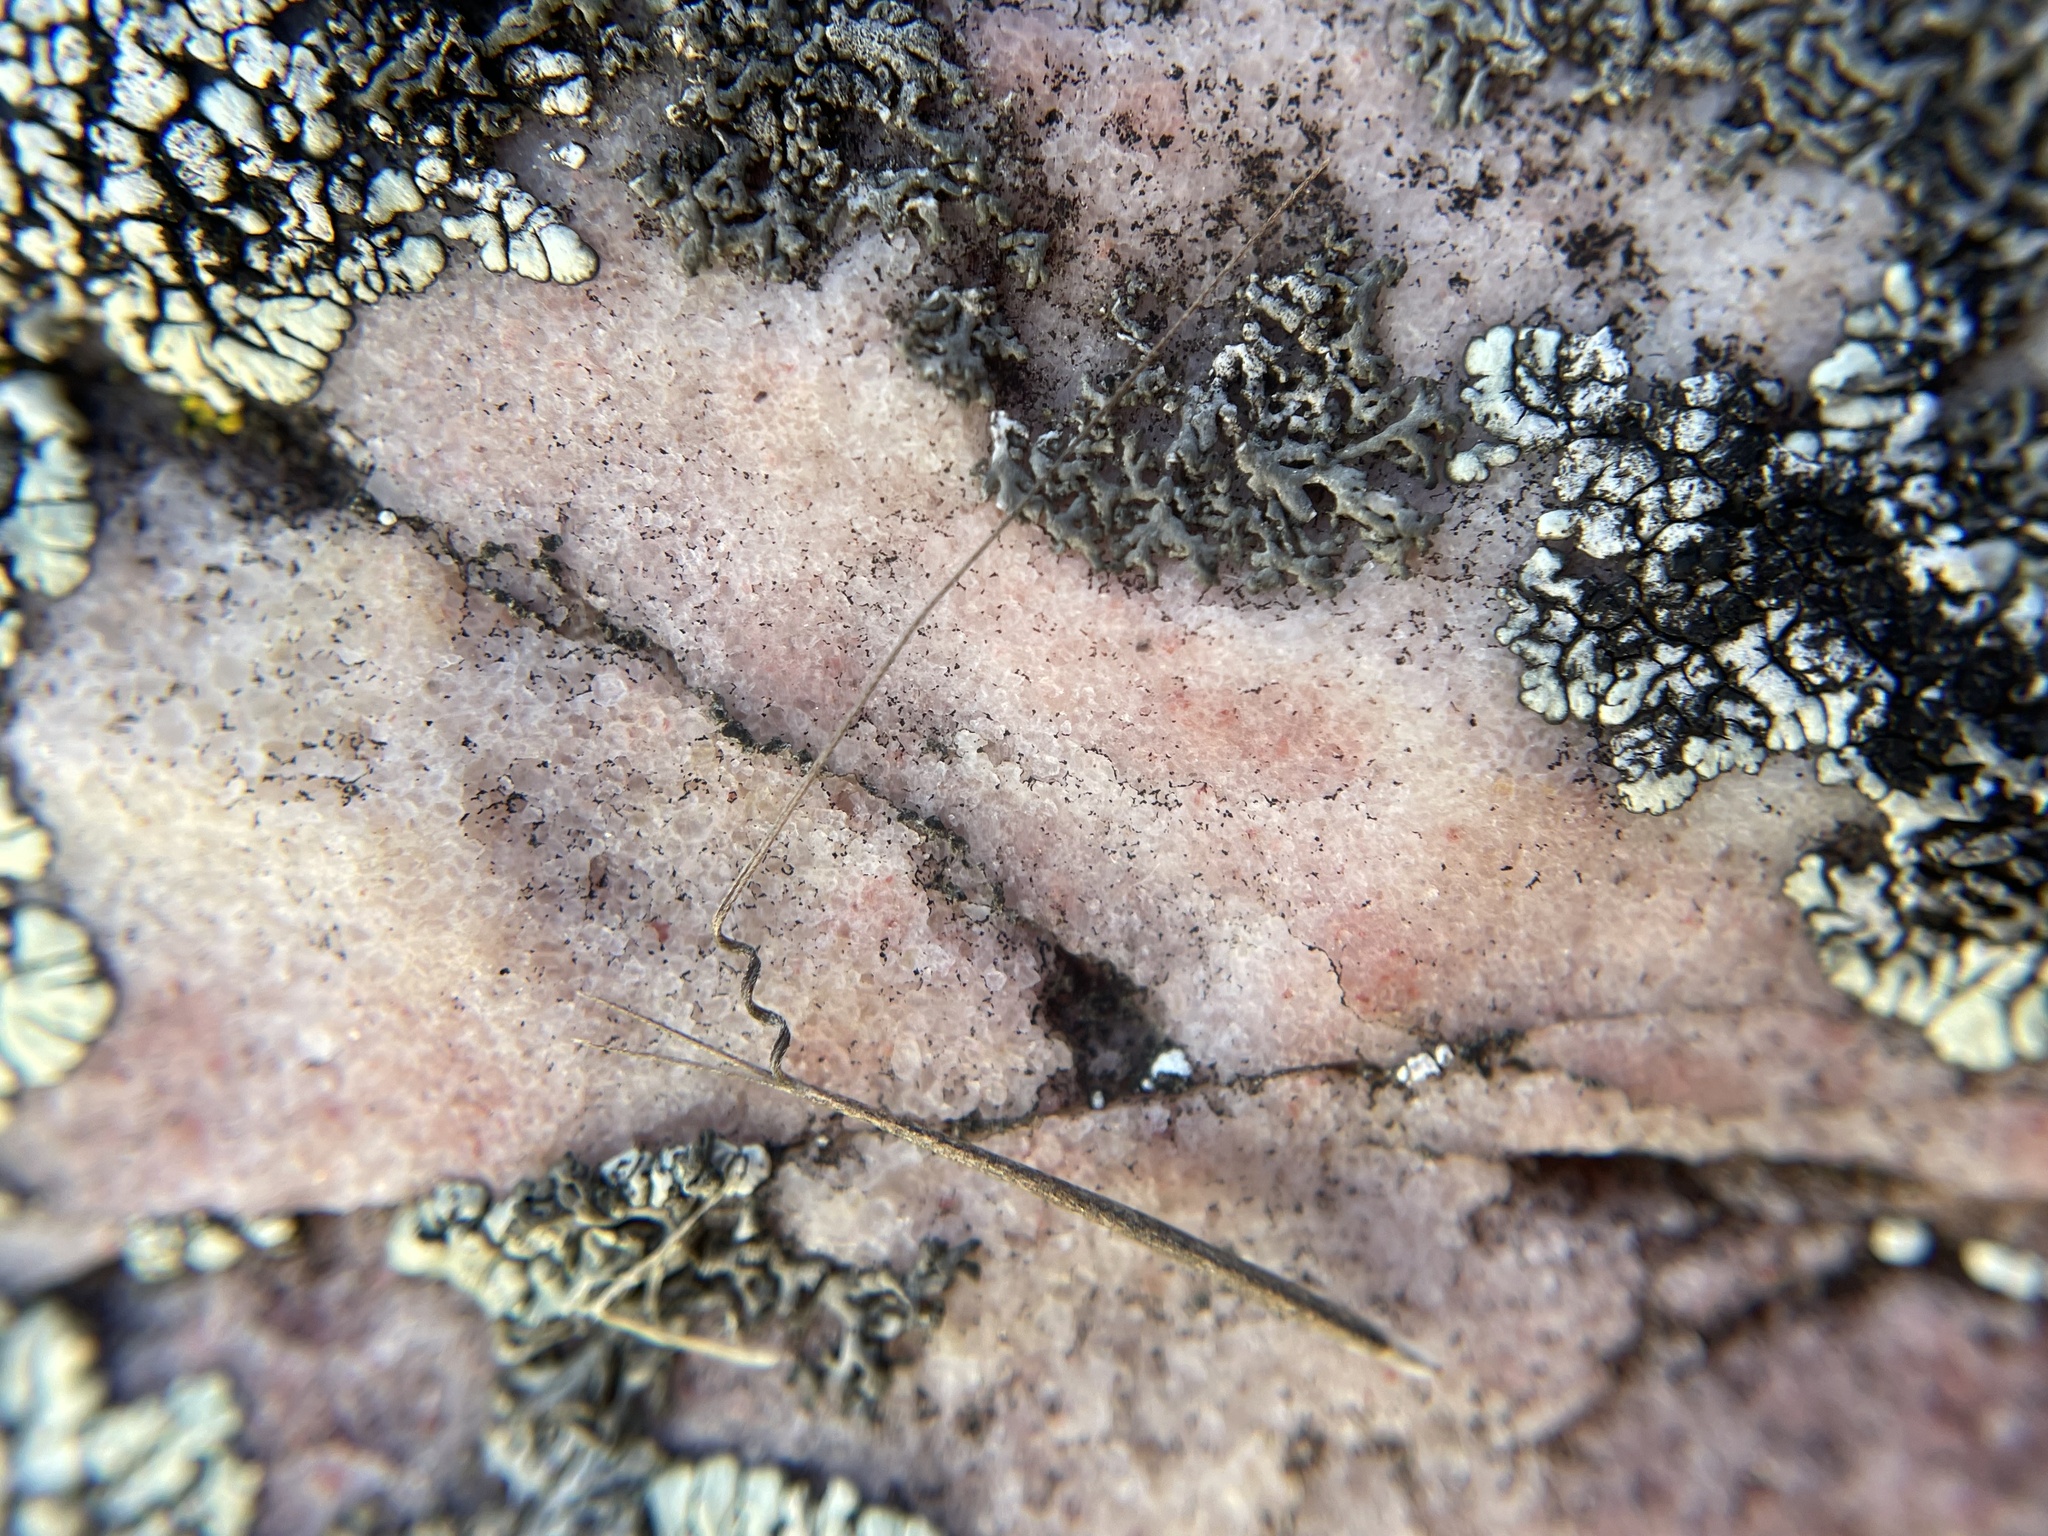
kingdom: Plantae
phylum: Tracheophyta
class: Liliopsida
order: Poales
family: Poaceae
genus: Aristida
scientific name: Aristida dichotoma
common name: Churchmouse three-awn
